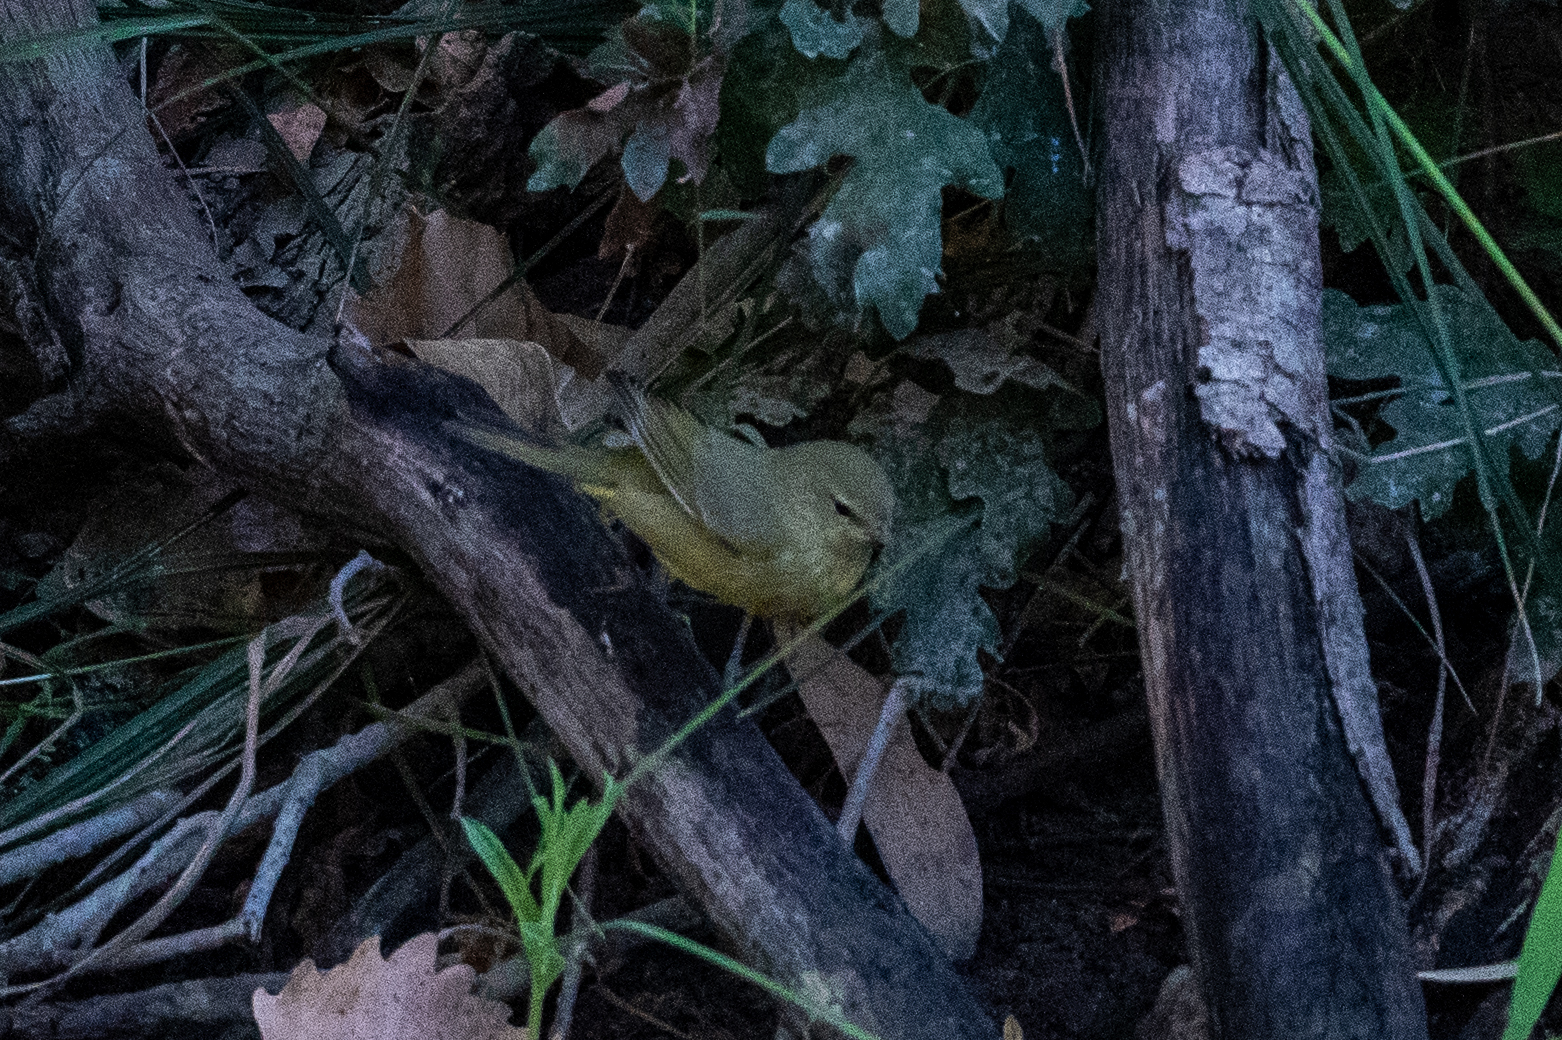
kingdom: Animalia
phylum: Chordata
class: Aves
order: Passeriformes
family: Parulidae
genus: Leiothlypis
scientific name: Leiothlypis celata
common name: Orange-crowned warbler
